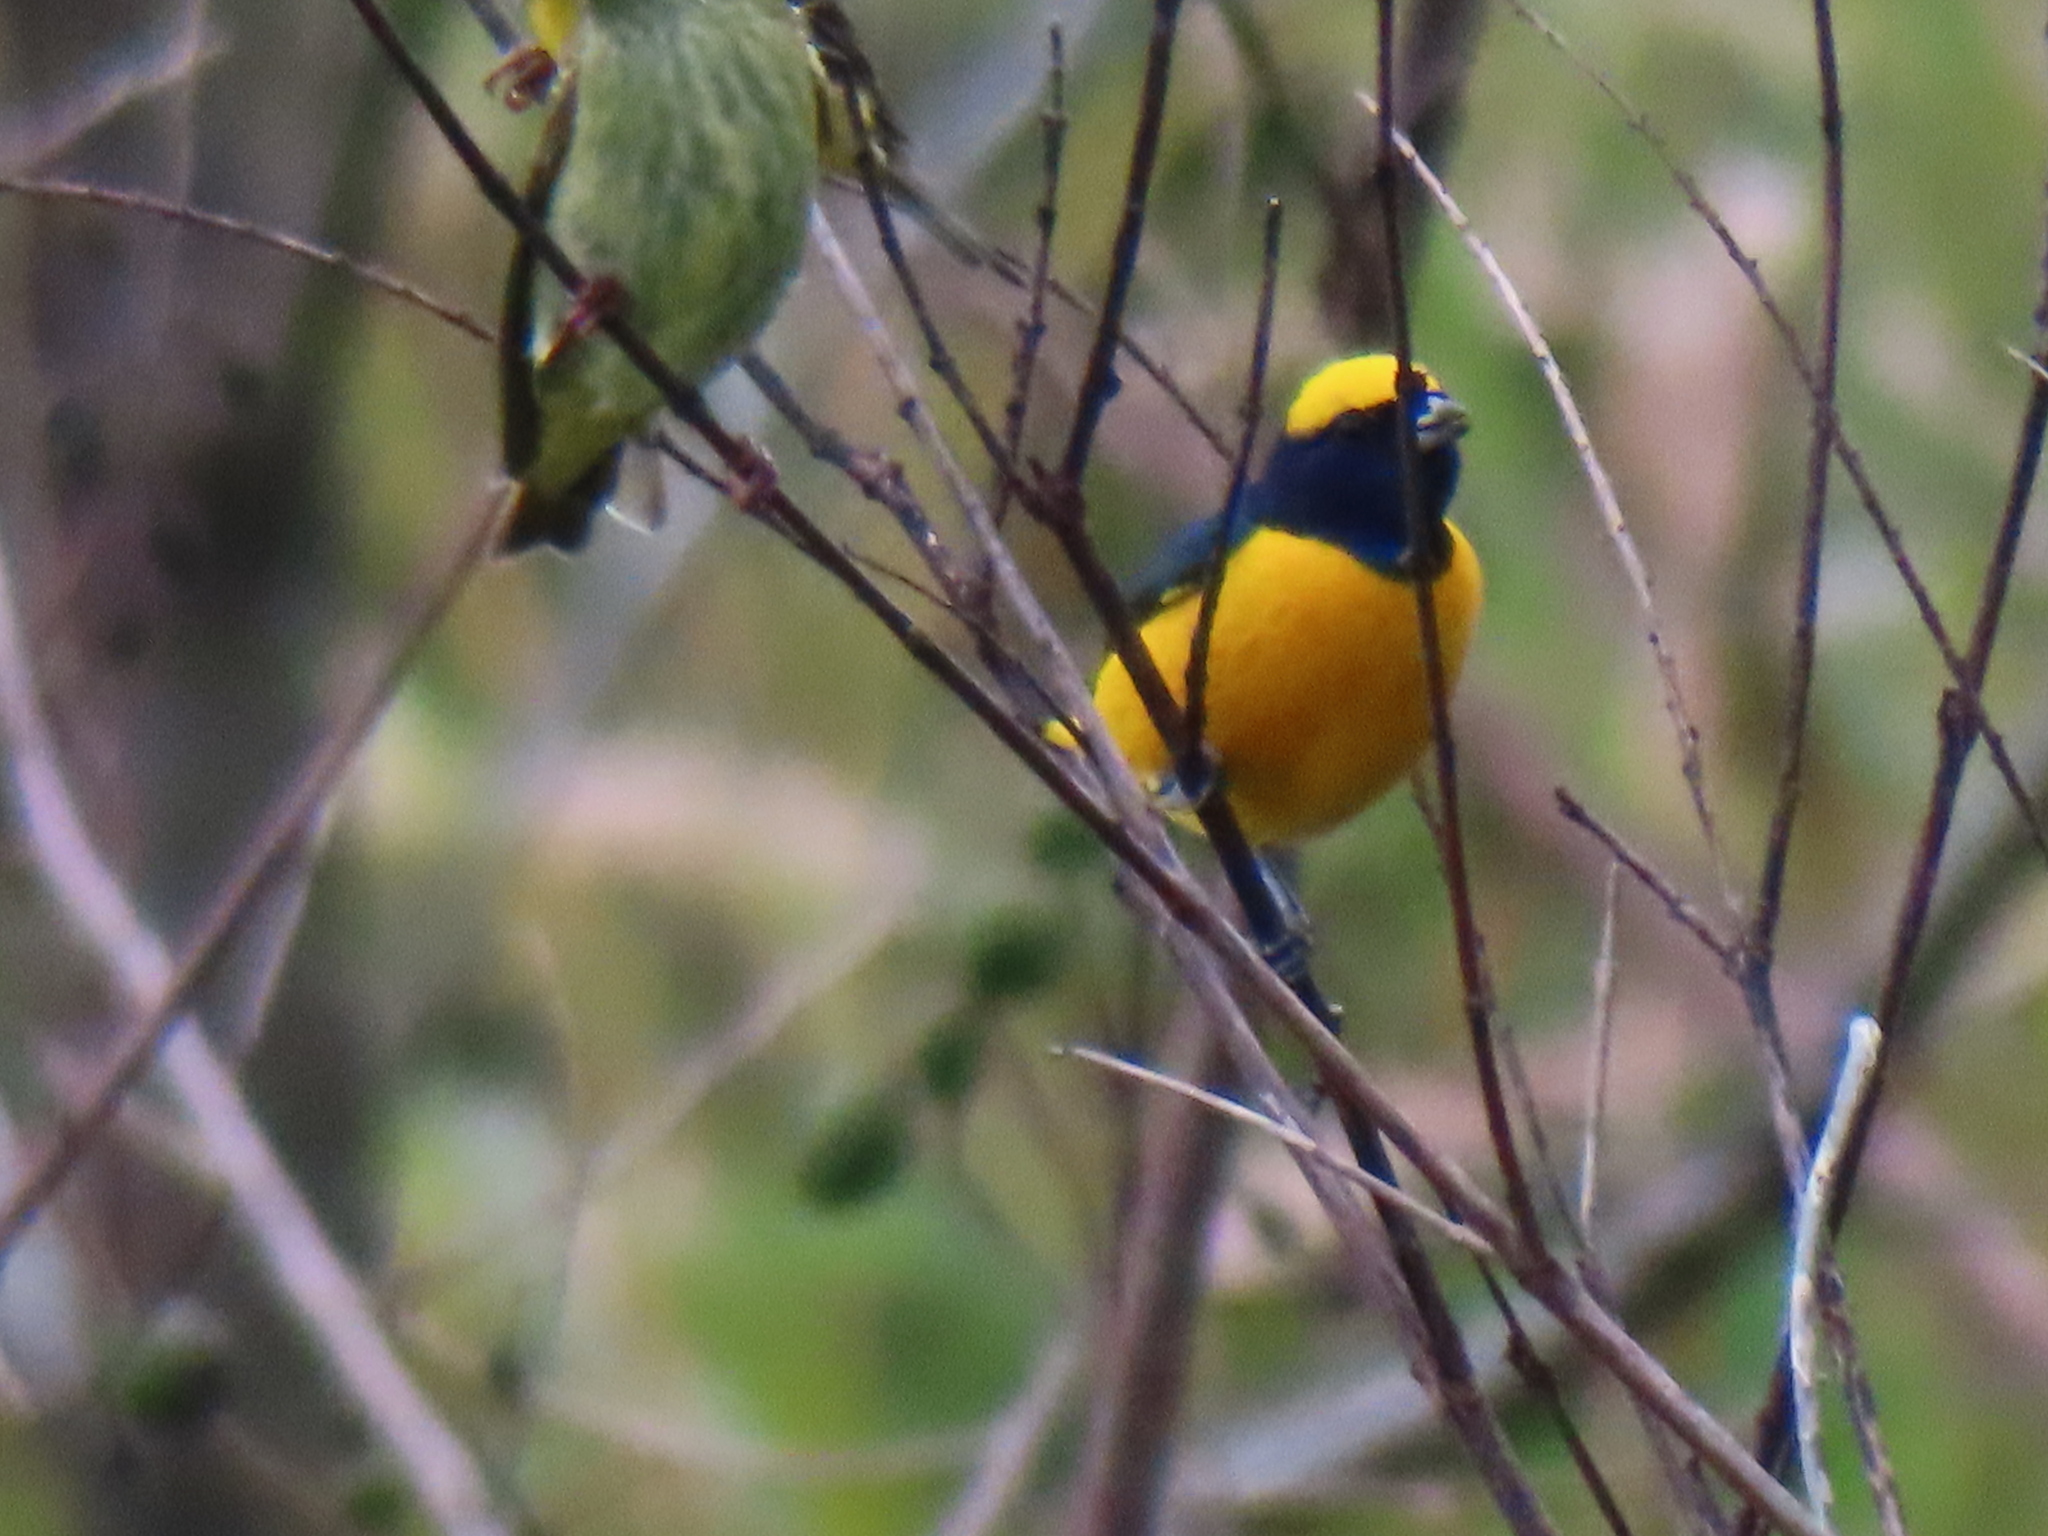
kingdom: Animalia
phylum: Chordata
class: Aves
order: Passeriformes
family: Fringillidae
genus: Euphonia
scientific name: Euphonia luteicapilla
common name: Yellow-crowned euphonia
